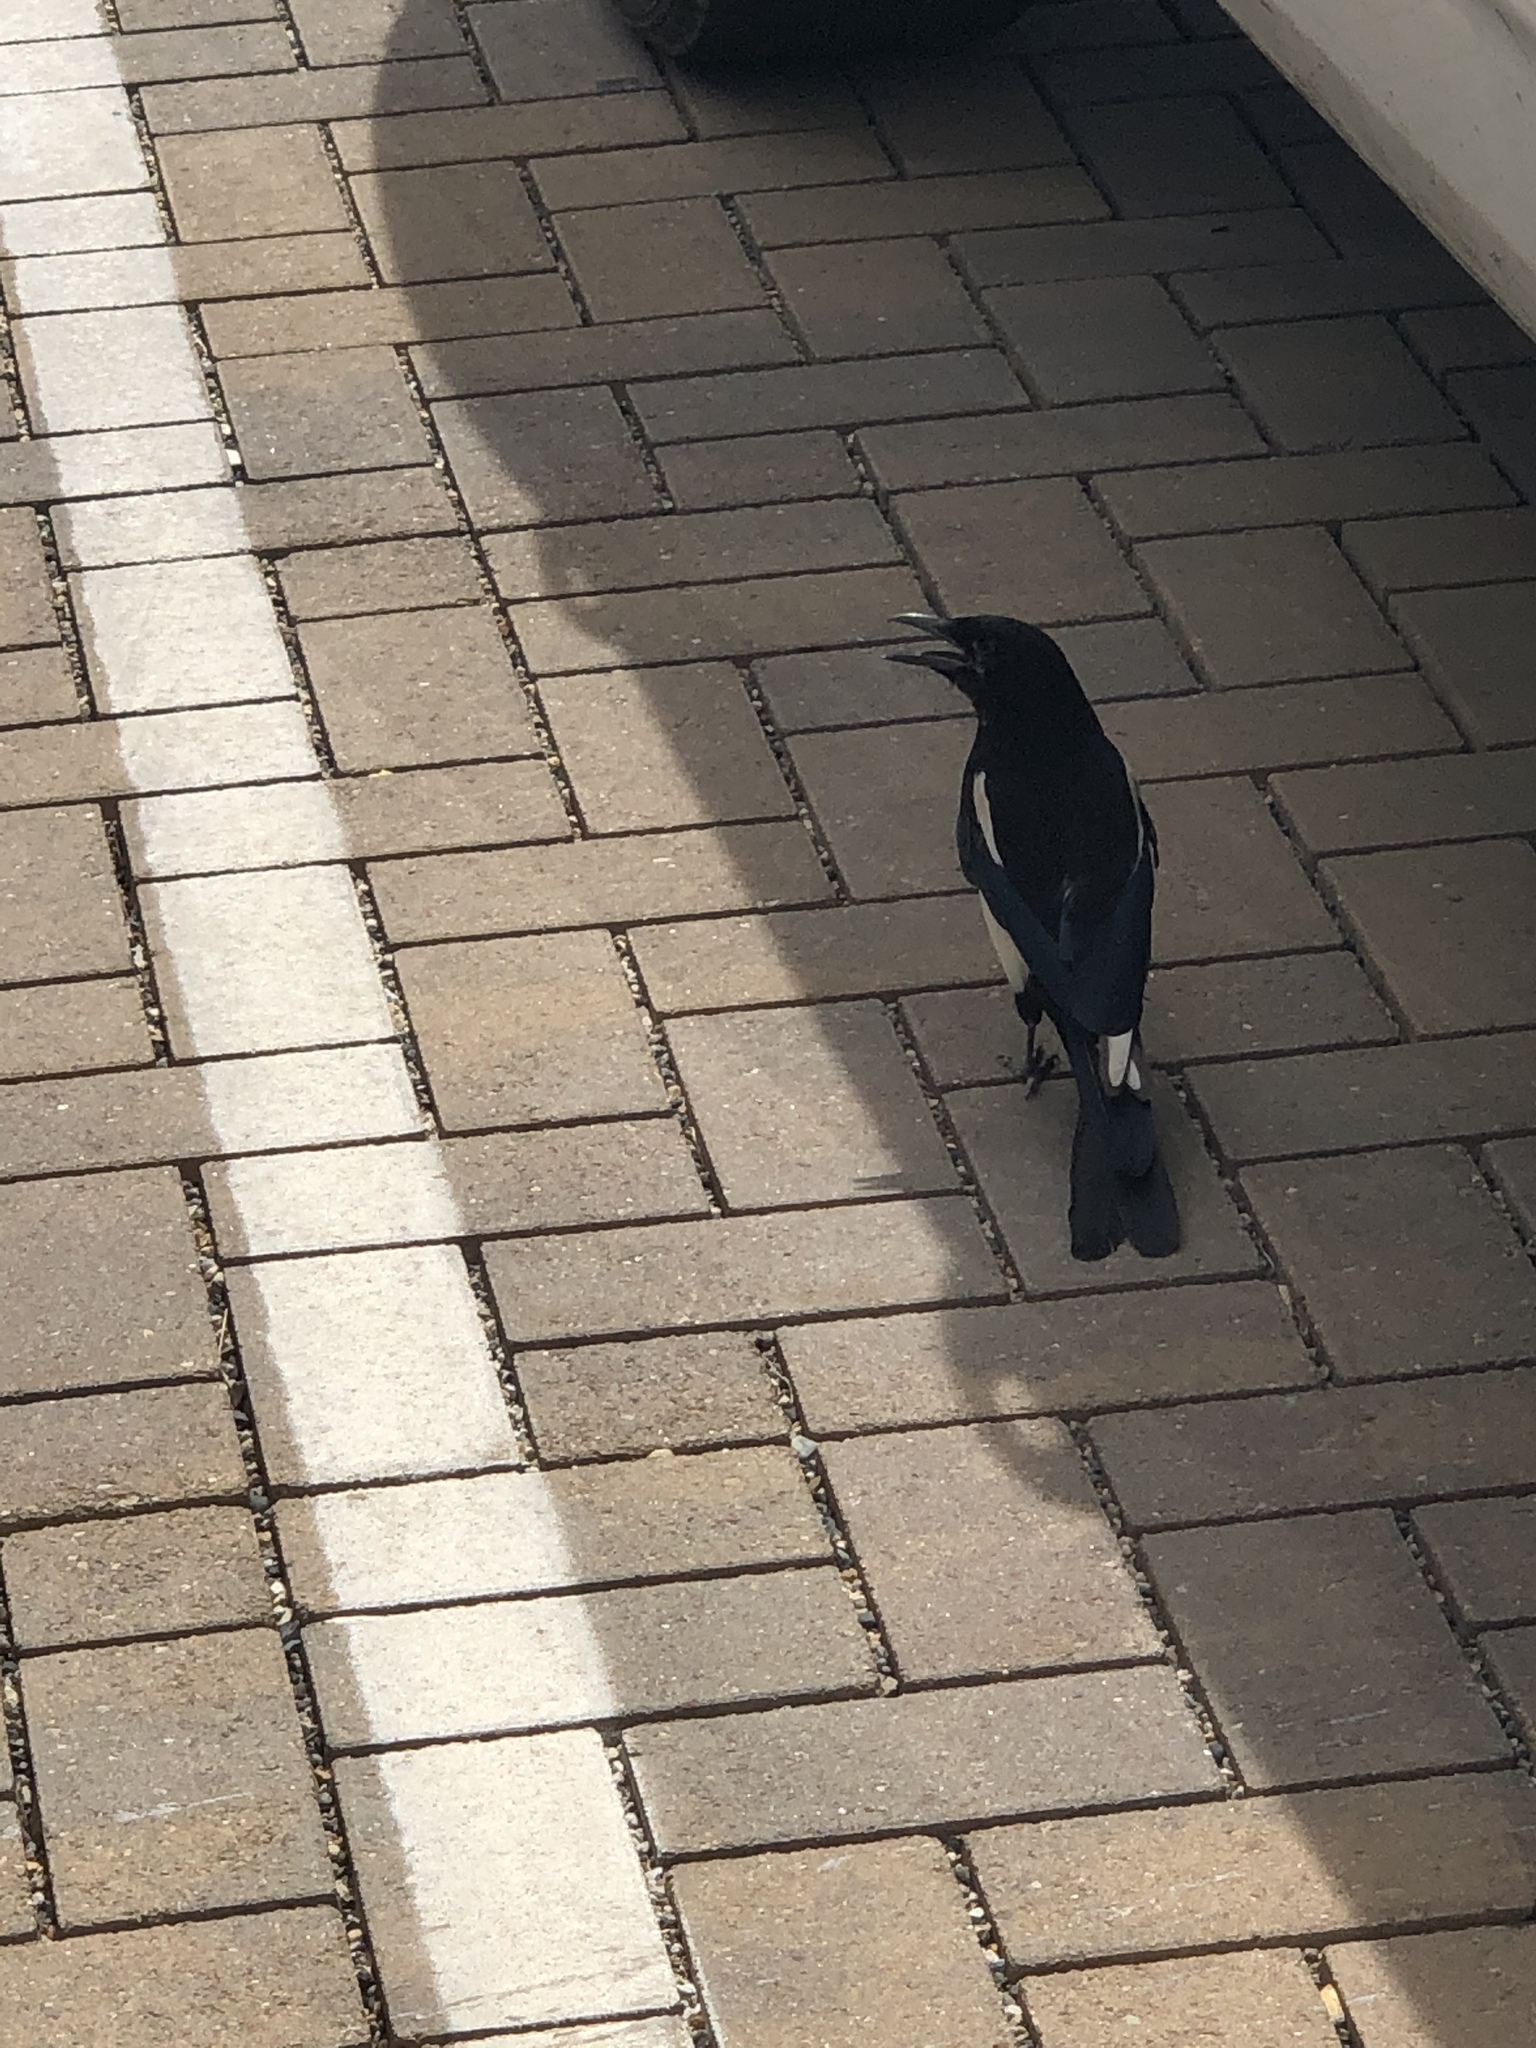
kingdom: Animalia
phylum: Chordata
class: Aves
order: Passeriformes
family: Corvidae
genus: Pica
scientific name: Pica hudsonia
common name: Black-billed magpie
